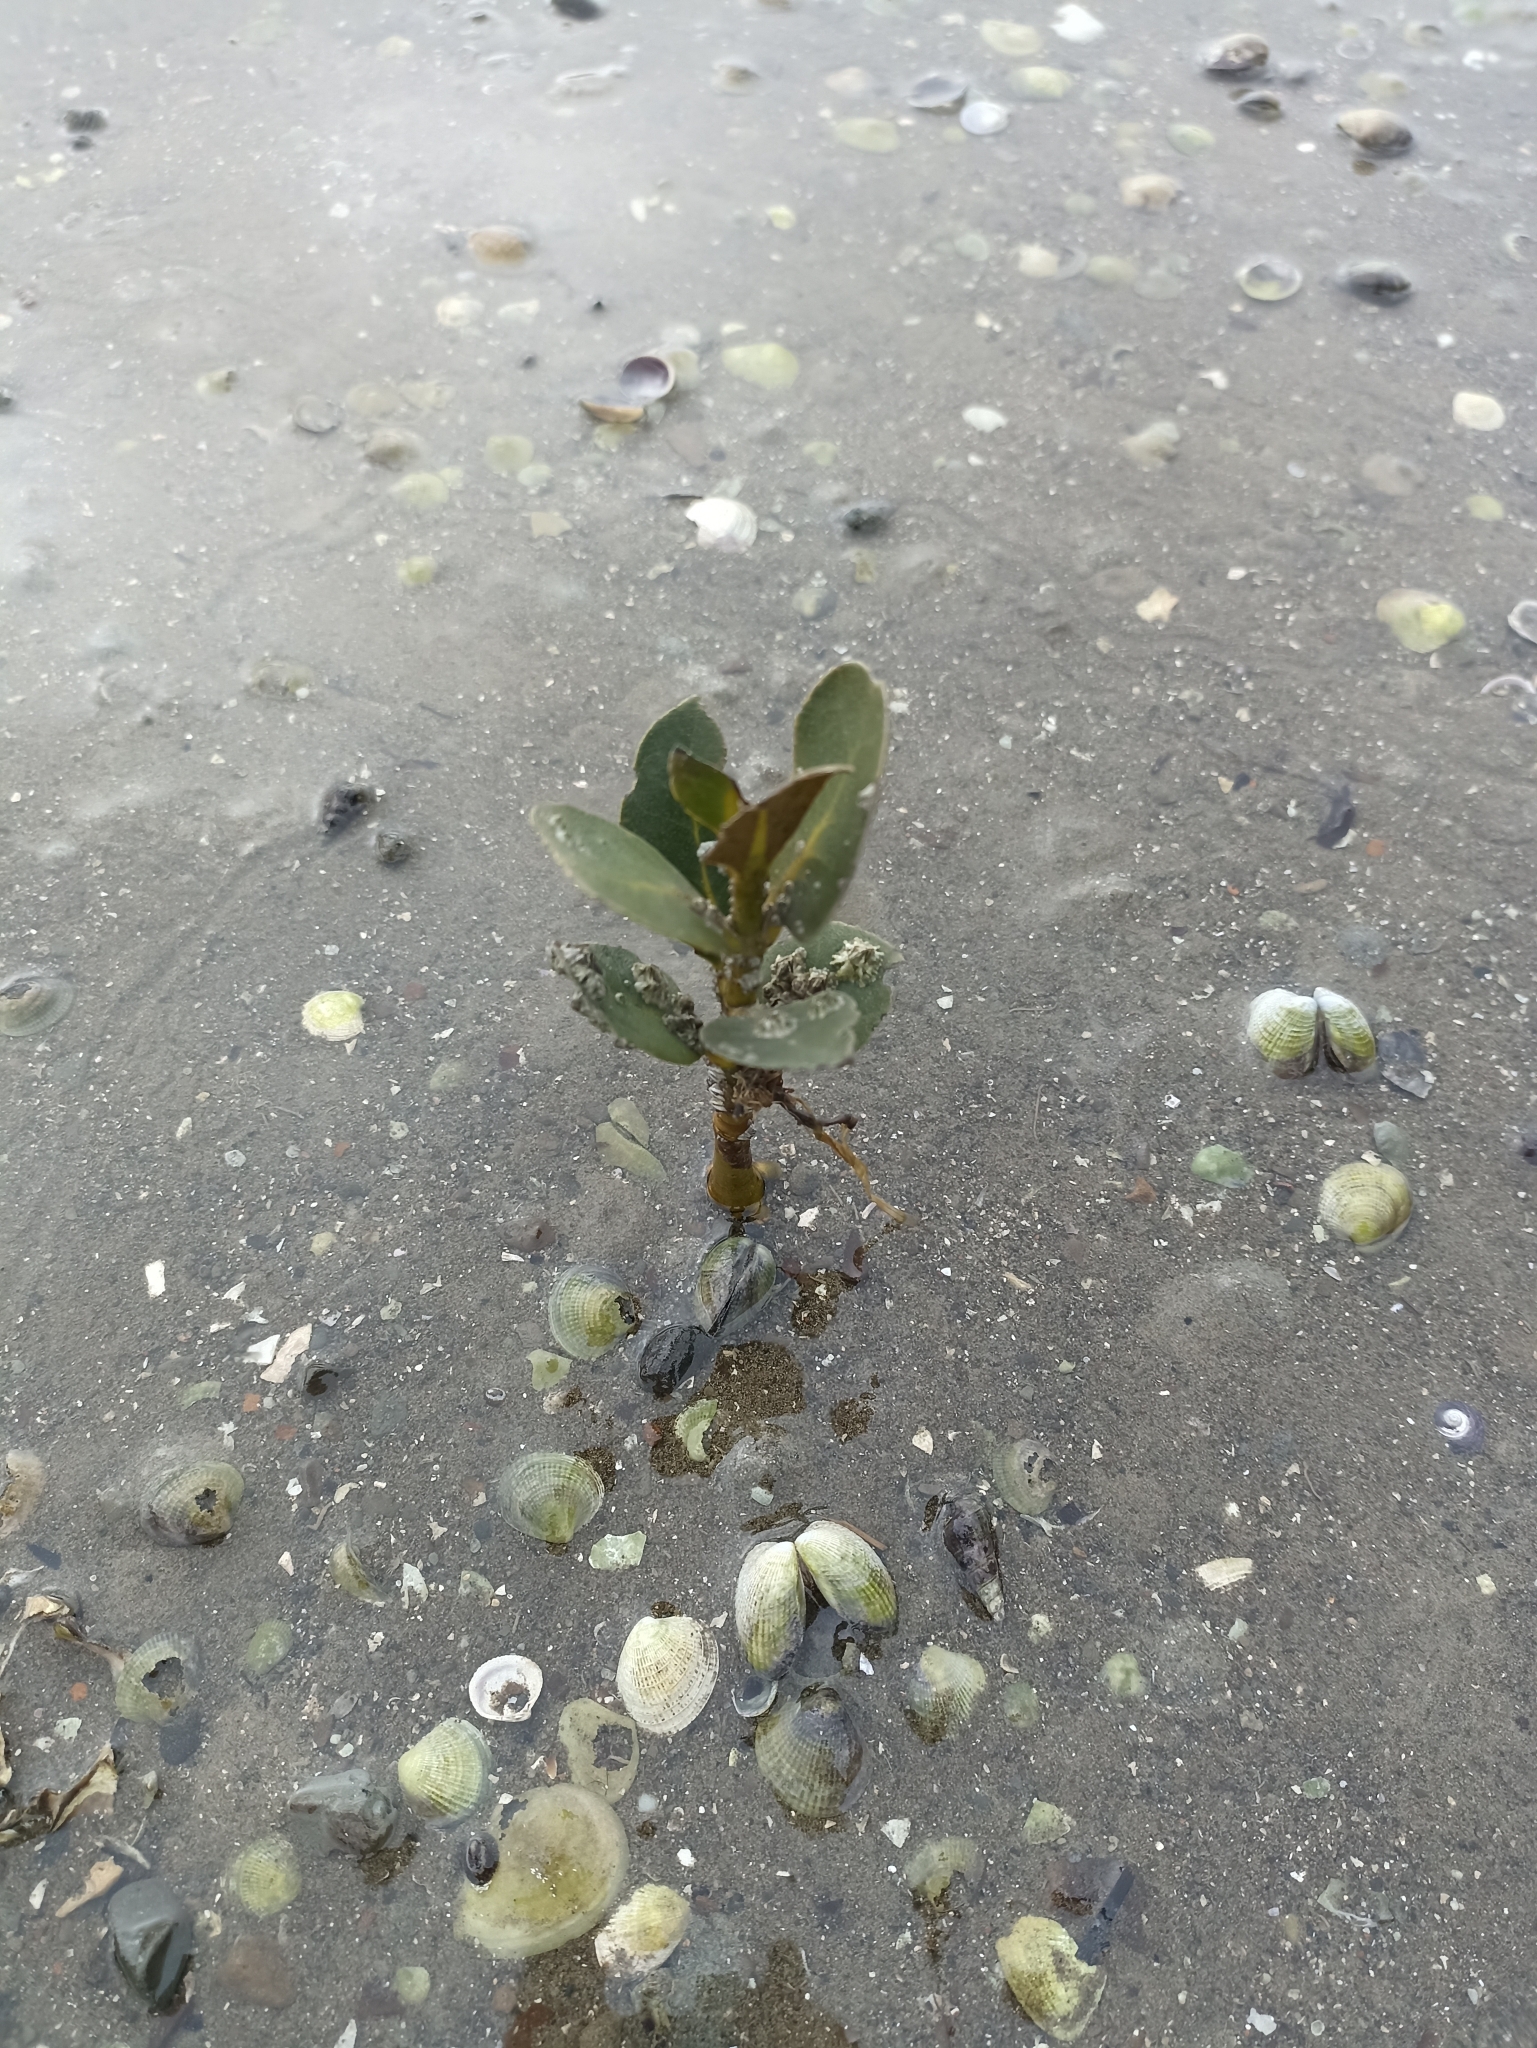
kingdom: Plantae
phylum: Tracheophyta
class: Magnoliopsida
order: Lamiales
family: Acanthaceae
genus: Avicennia
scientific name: Avicennia marina
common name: Gray mangrove
